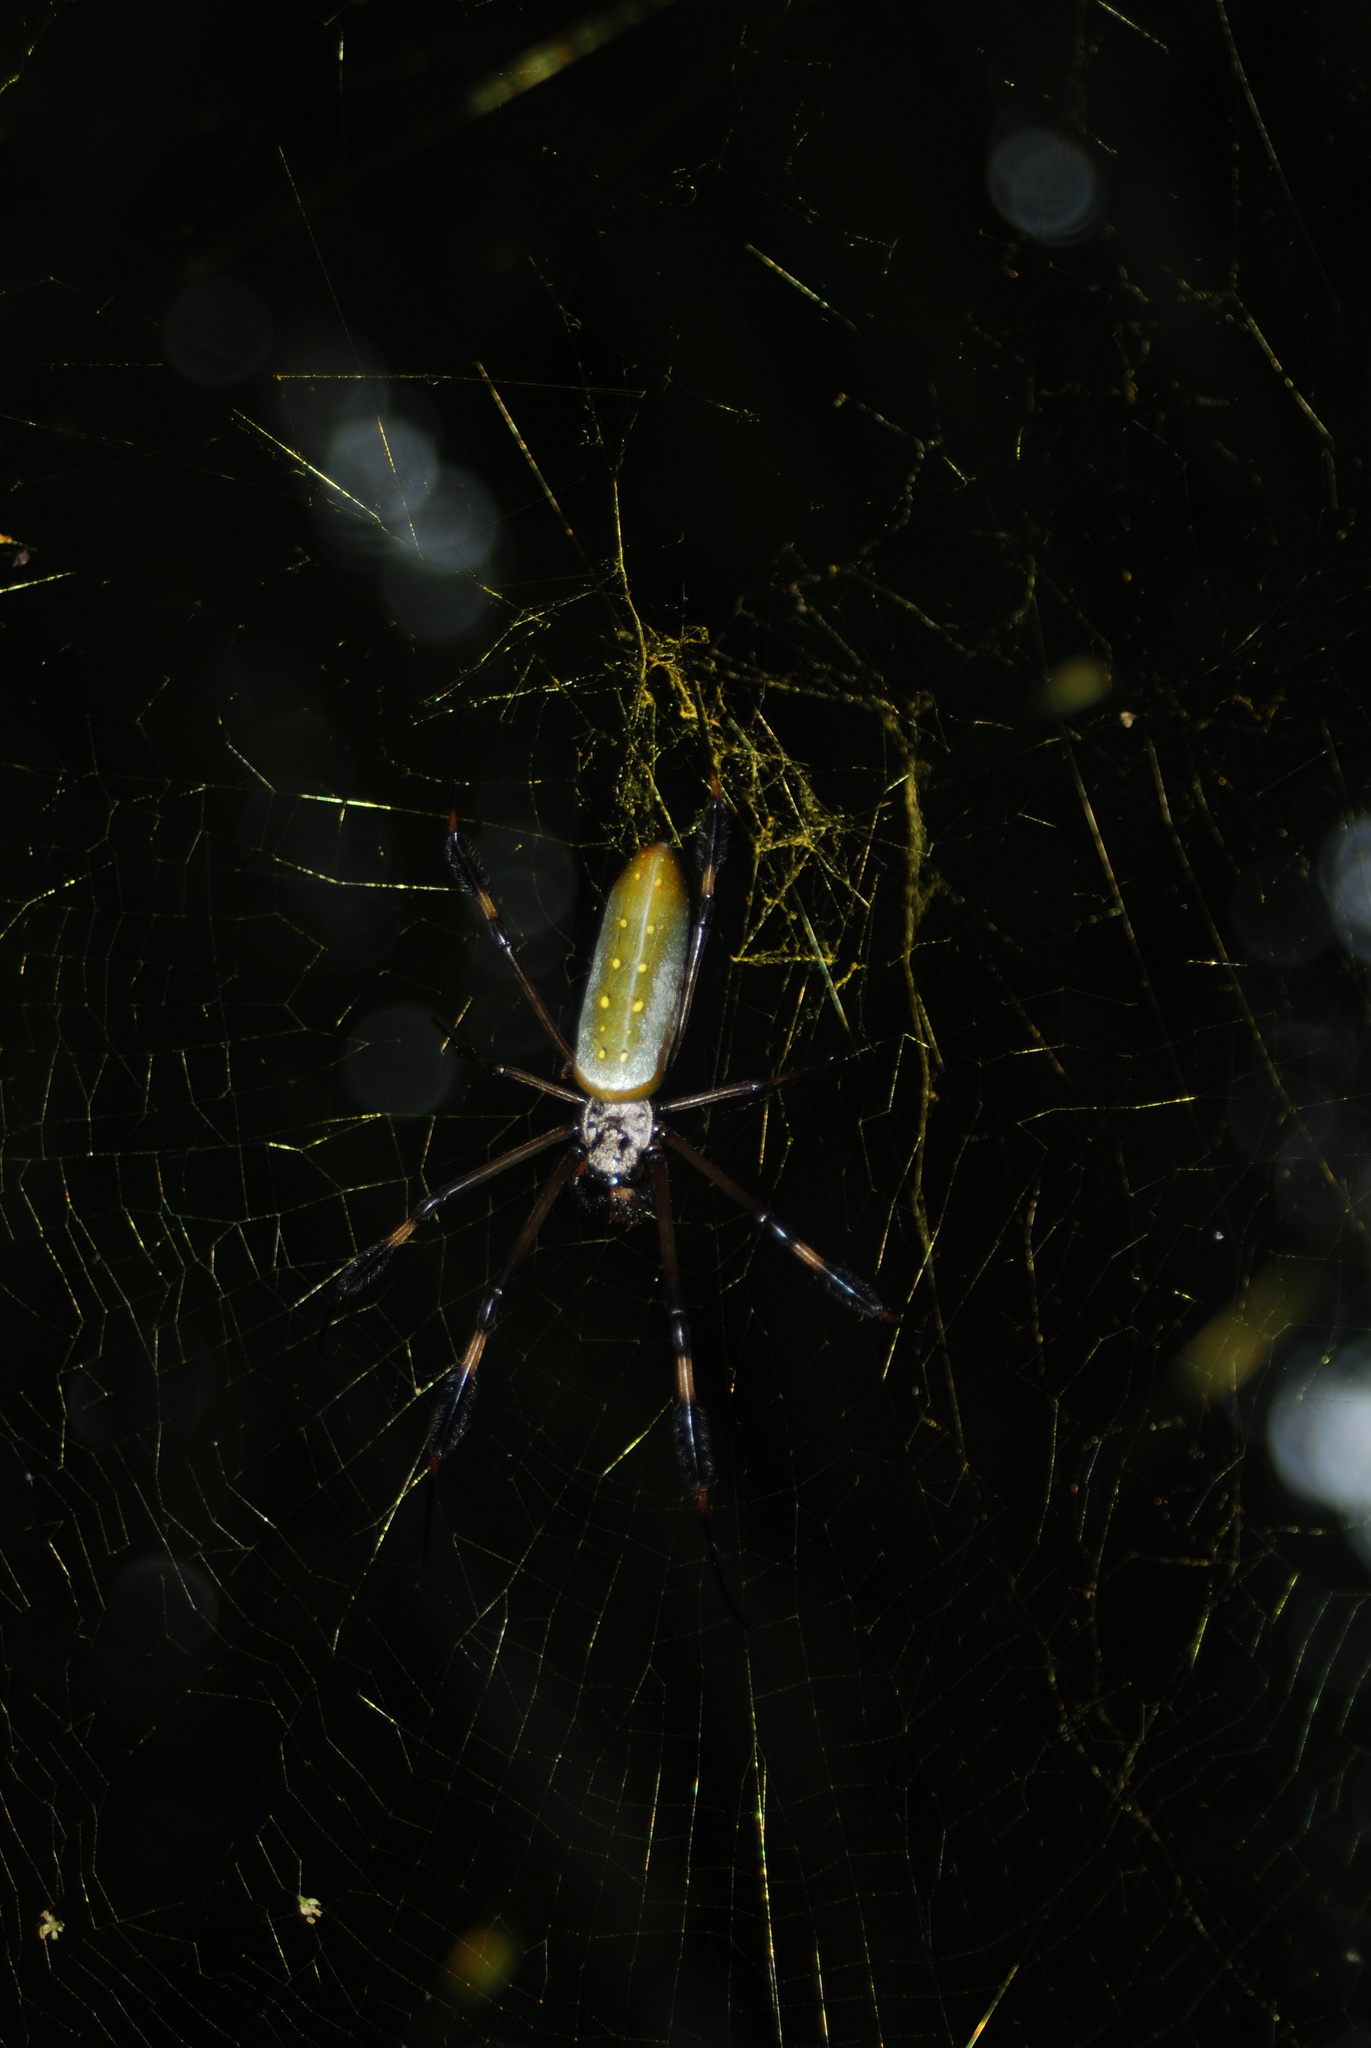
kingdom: Animalia
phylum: Arthropoda
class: Arachnida
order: Araneae
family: Araneidae
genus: Trichonephila
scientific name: Trichonephila clavipes
